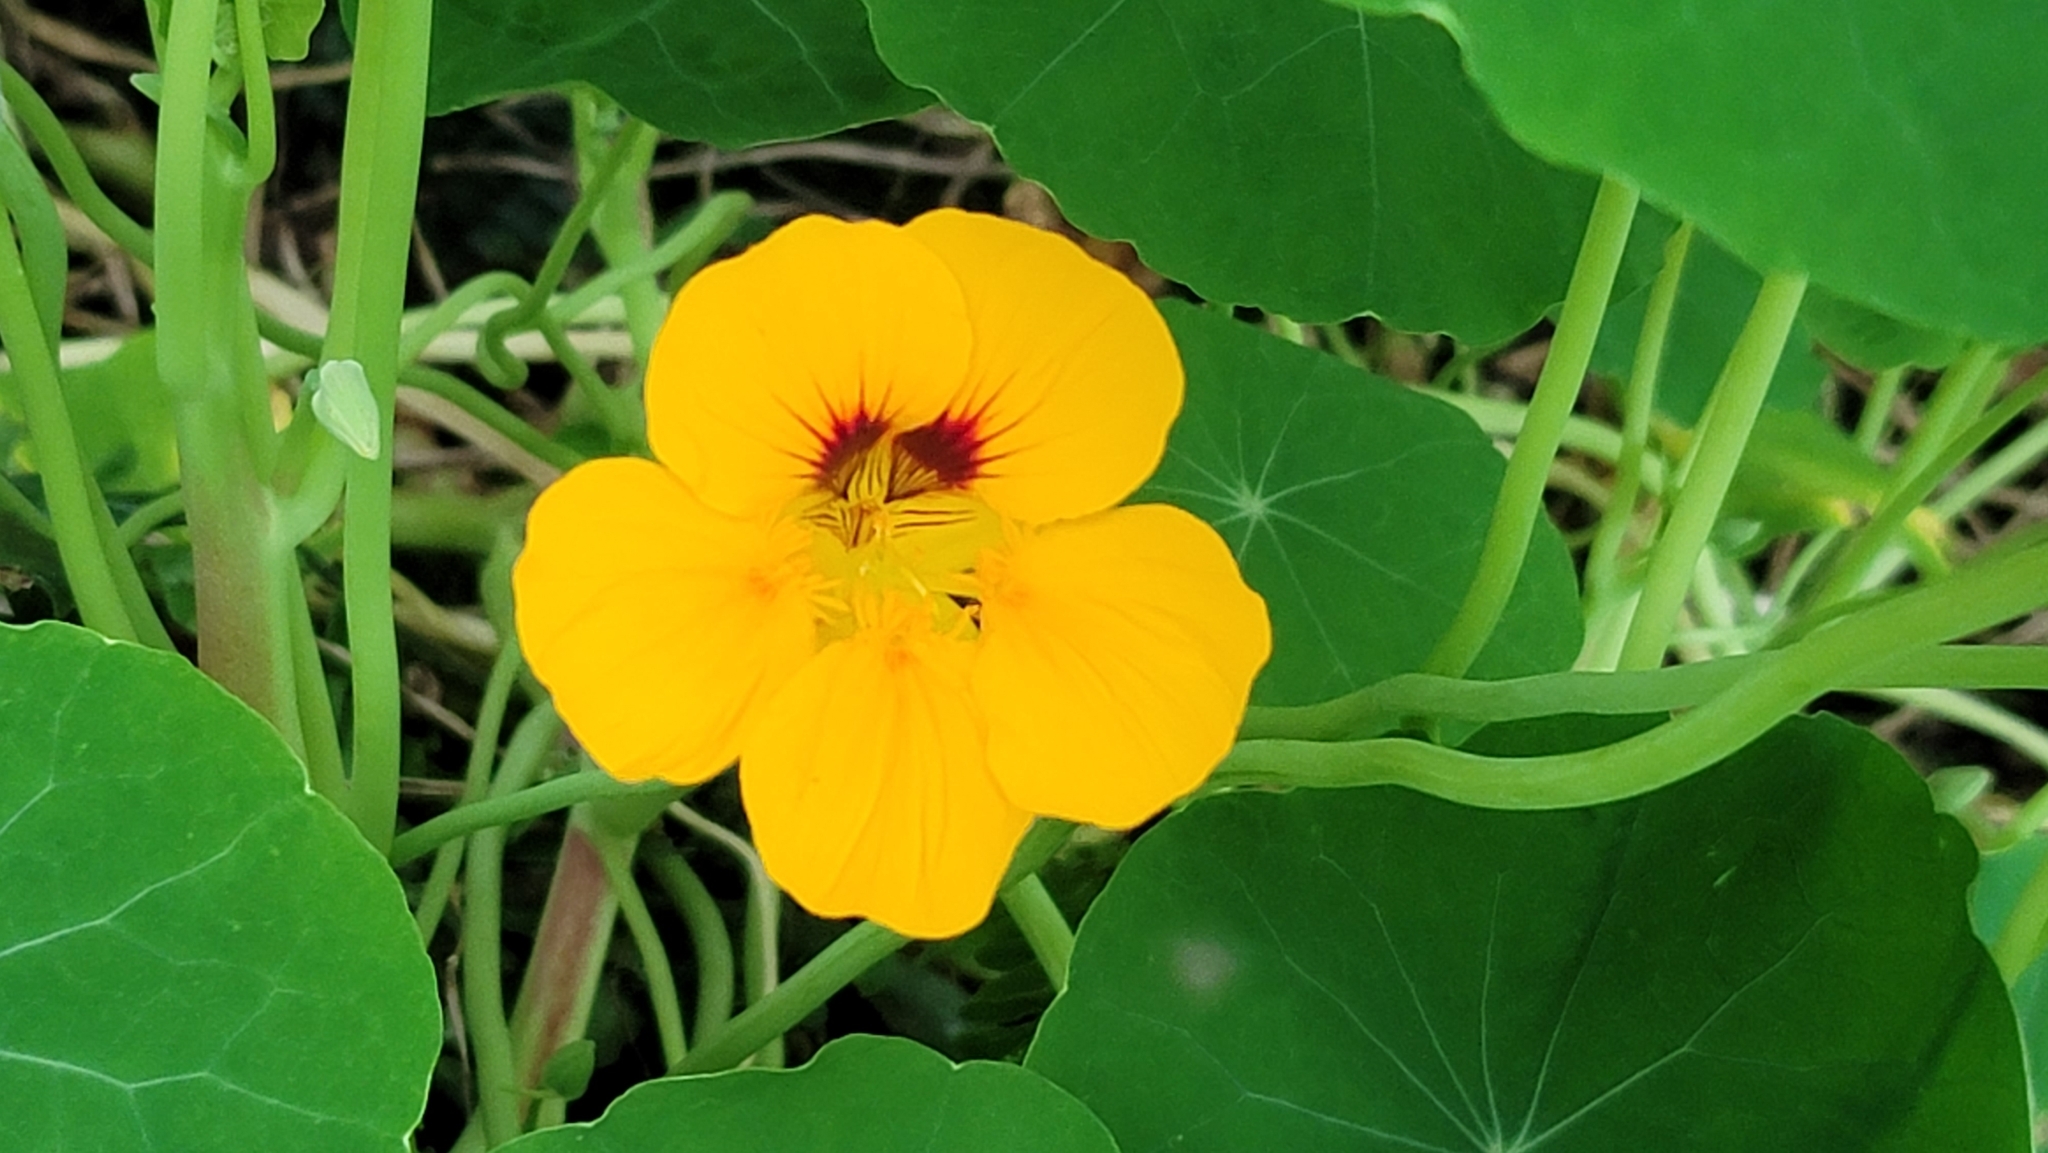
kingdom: Plantae
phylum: Tracheophyta
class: Magnoliopsida
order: Brassicales
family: Tropaeolaceae
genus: Tropaeolum
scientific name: Tropaeolum majus
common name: Nasturtium
